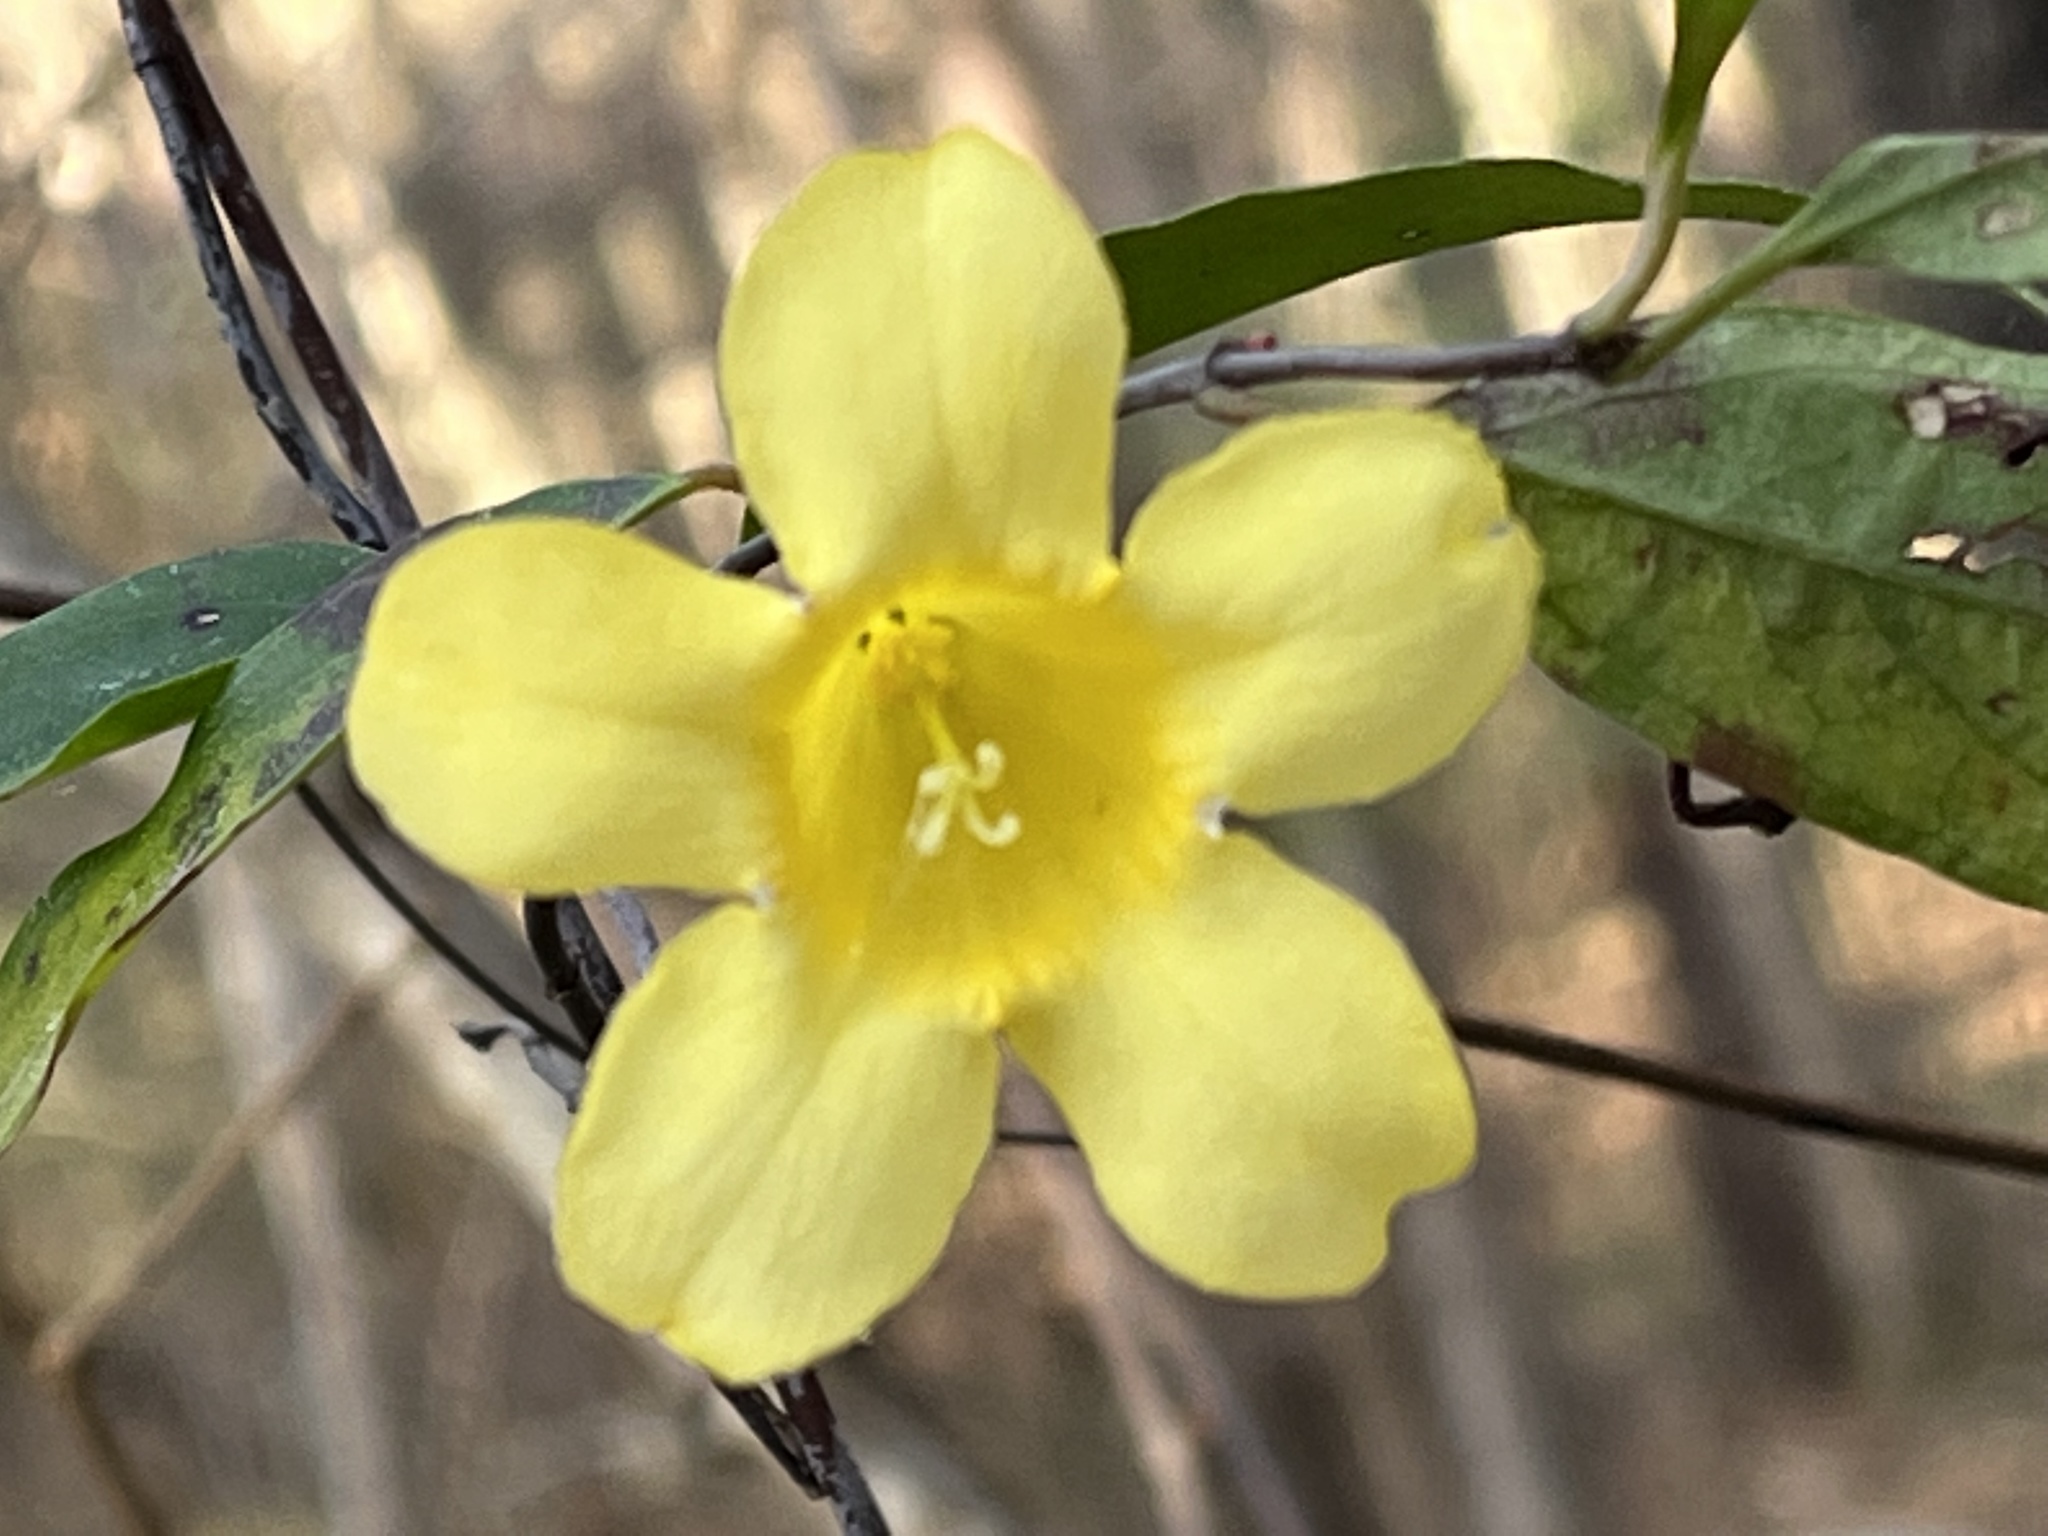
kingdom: Plantae
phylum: Tracheophyta
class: Magnoliopsida
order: Gentianales
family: Gelsemiaceae
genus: Gelsemium
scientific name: Gelsemium sempervirens
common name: Carolina-jasmine
